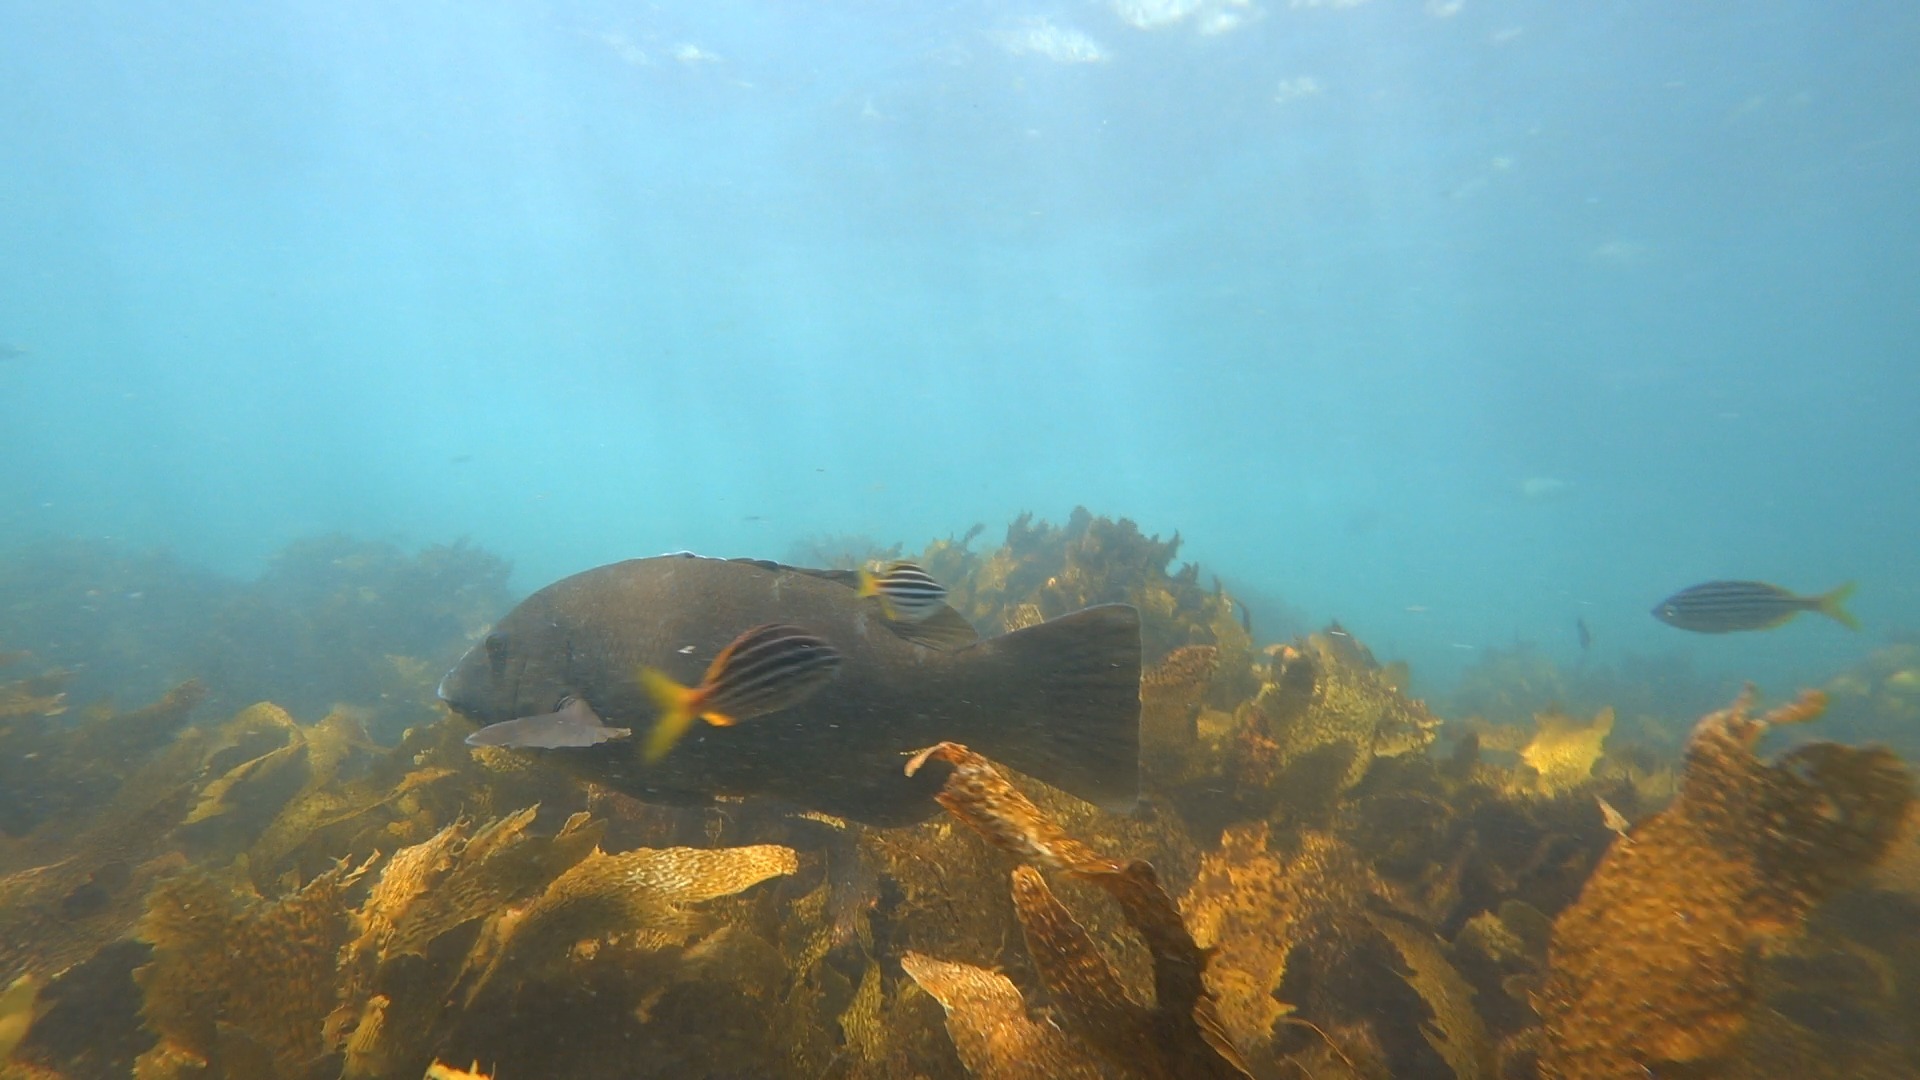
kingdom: Animalia
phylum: Chordata
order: Perciformes
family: Labridae
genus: Achoerodus
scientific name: Achoerodus viridis
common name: Brown groper
